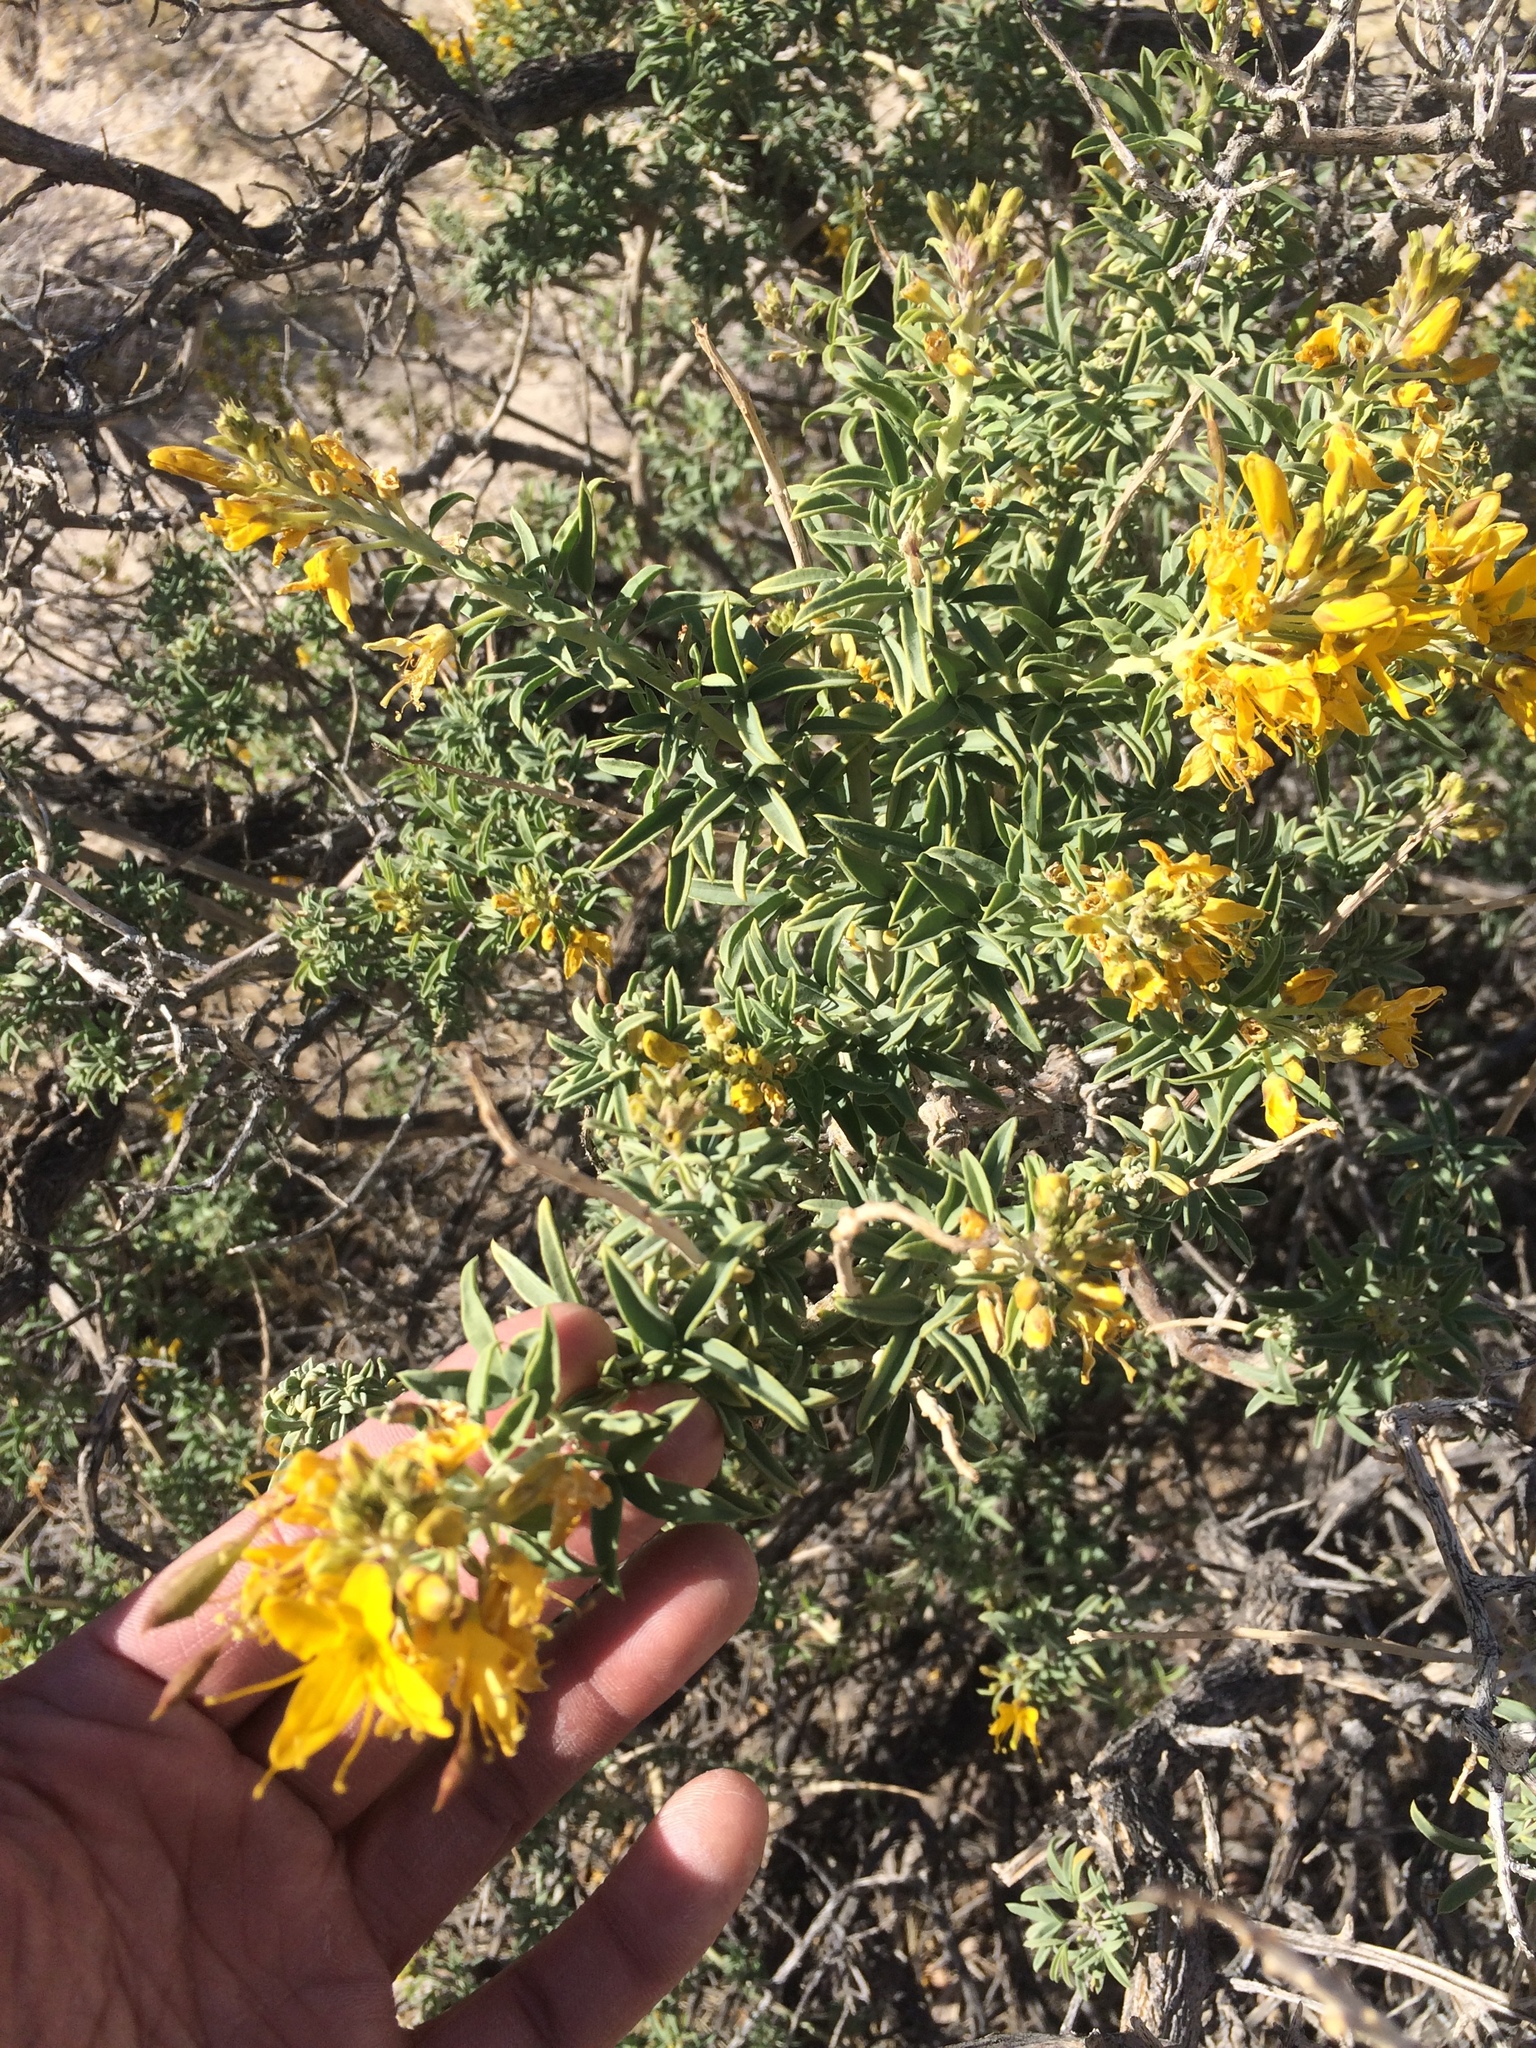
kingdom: Plantae
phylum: Tracheophyta
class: Magnoliopsida
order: Brassicales
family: Cleomaceae
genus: Cleomella
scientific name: Cleomella arborea
